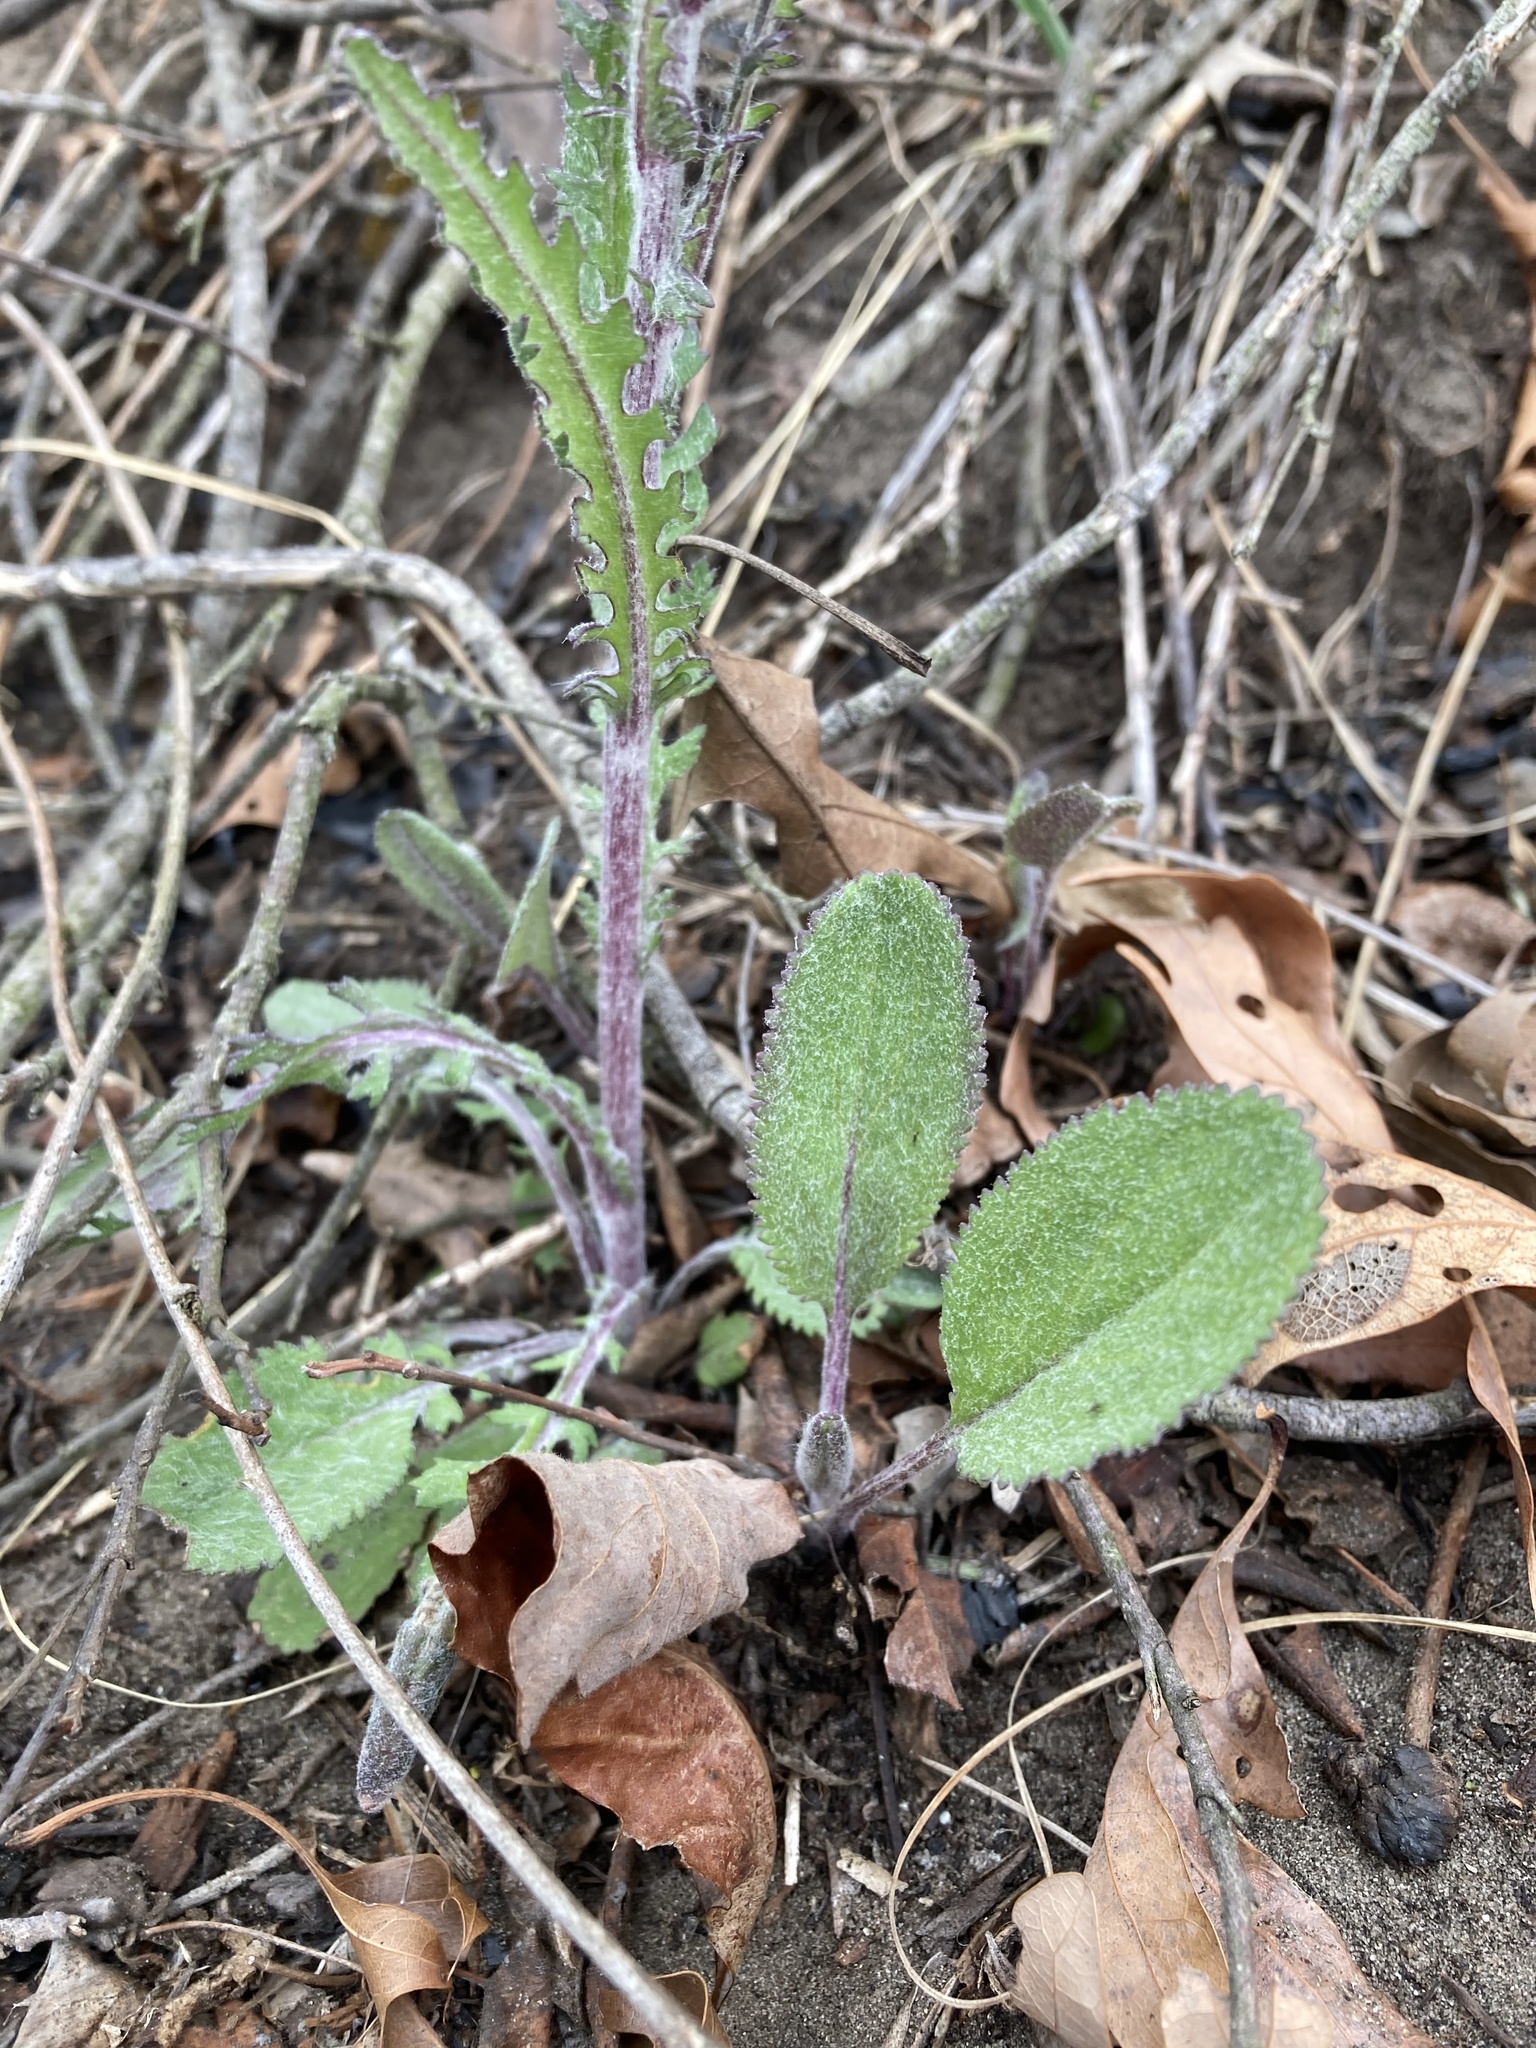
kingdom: Plantae
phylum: Tracheophyta
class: Magnoliopsida
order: Asterales
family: Asteraceae
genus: Packera
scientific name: Packera paupercula
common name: Balsam groundsel
